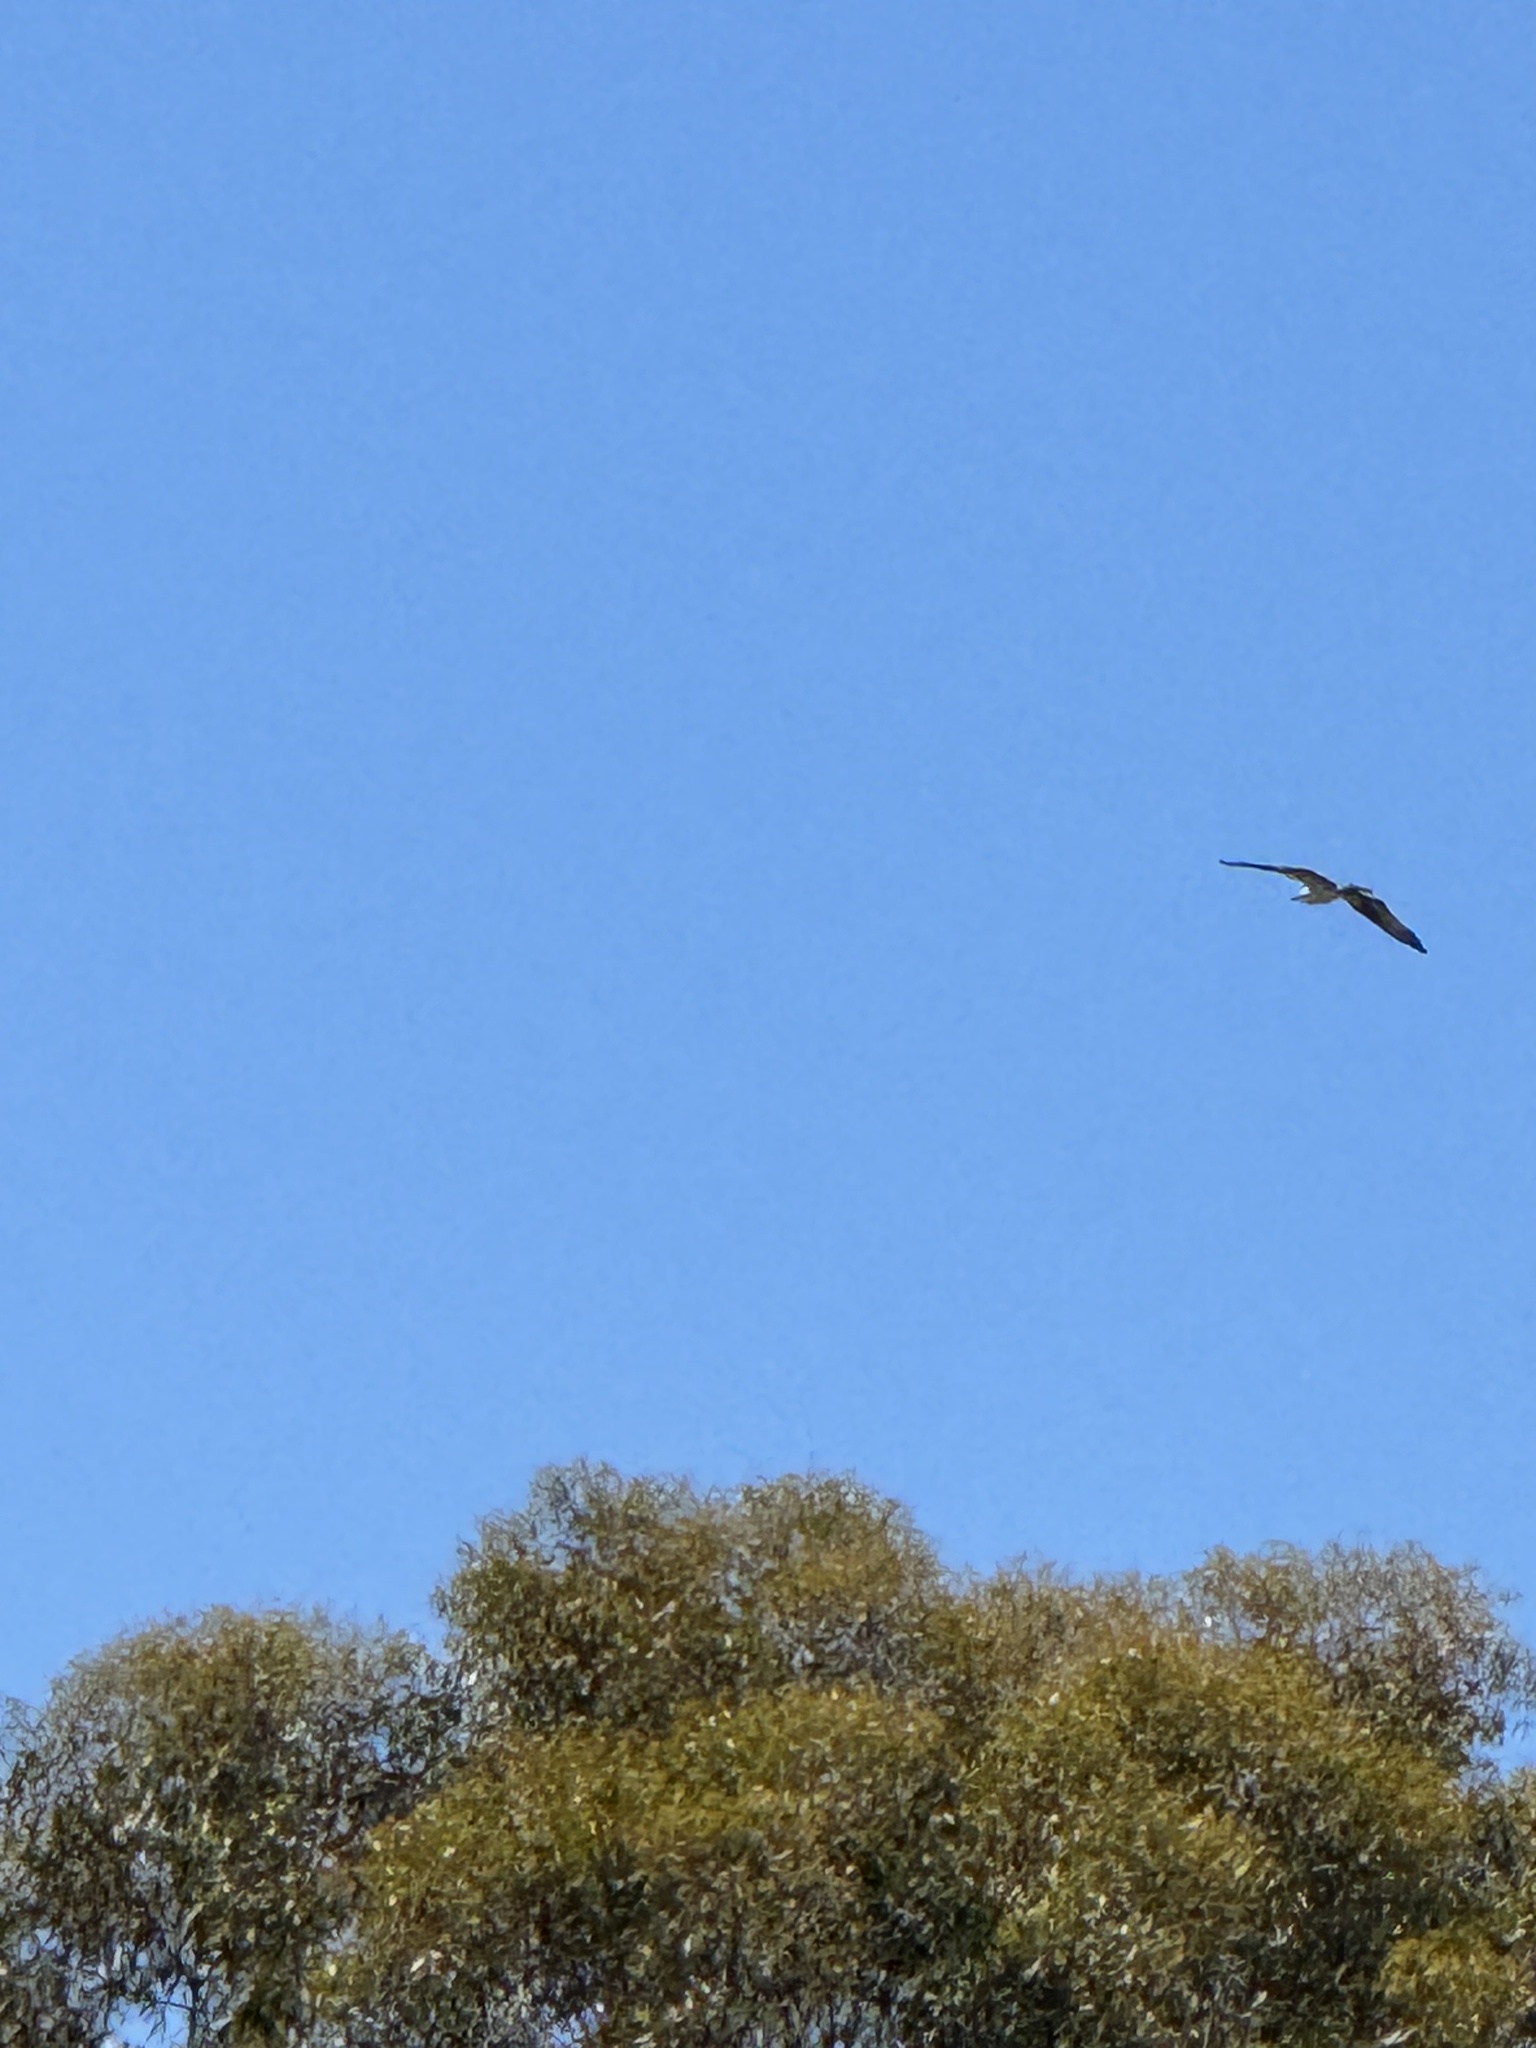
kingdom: Animalia
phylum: Chordata
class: Aves
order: Accipitriformes
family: Pandionidae
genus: Pandion
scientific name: Pandion haliaetus
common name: Osprey
